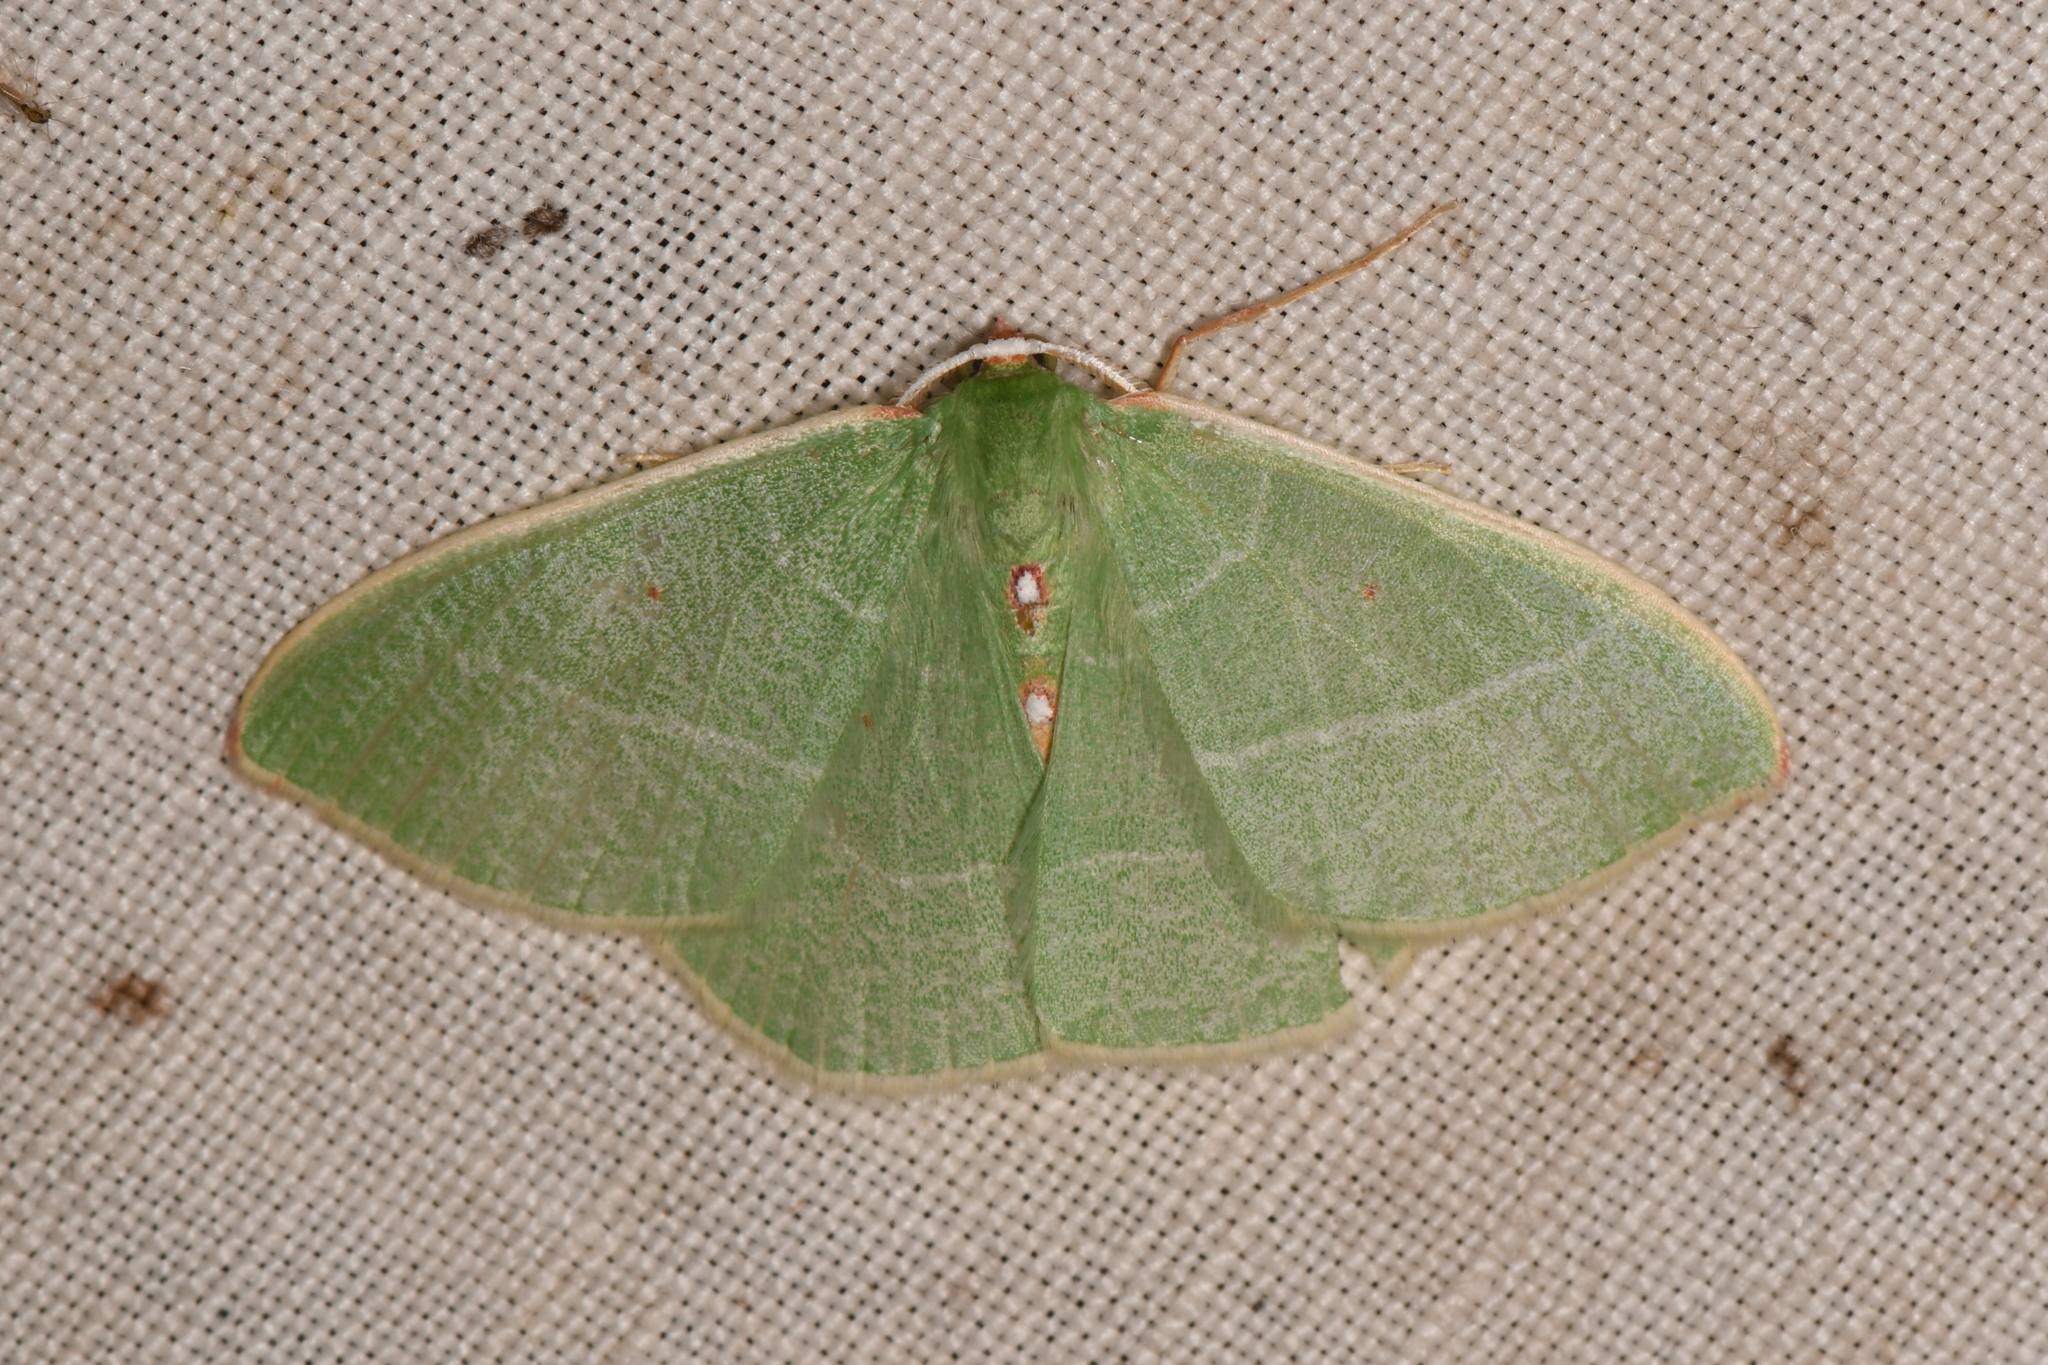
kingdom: Animalia
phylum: Arthropoda
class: Insecta
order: Lepidoptera
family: Geometridae
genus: Nemoria
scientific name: Nemoria darwiniata
